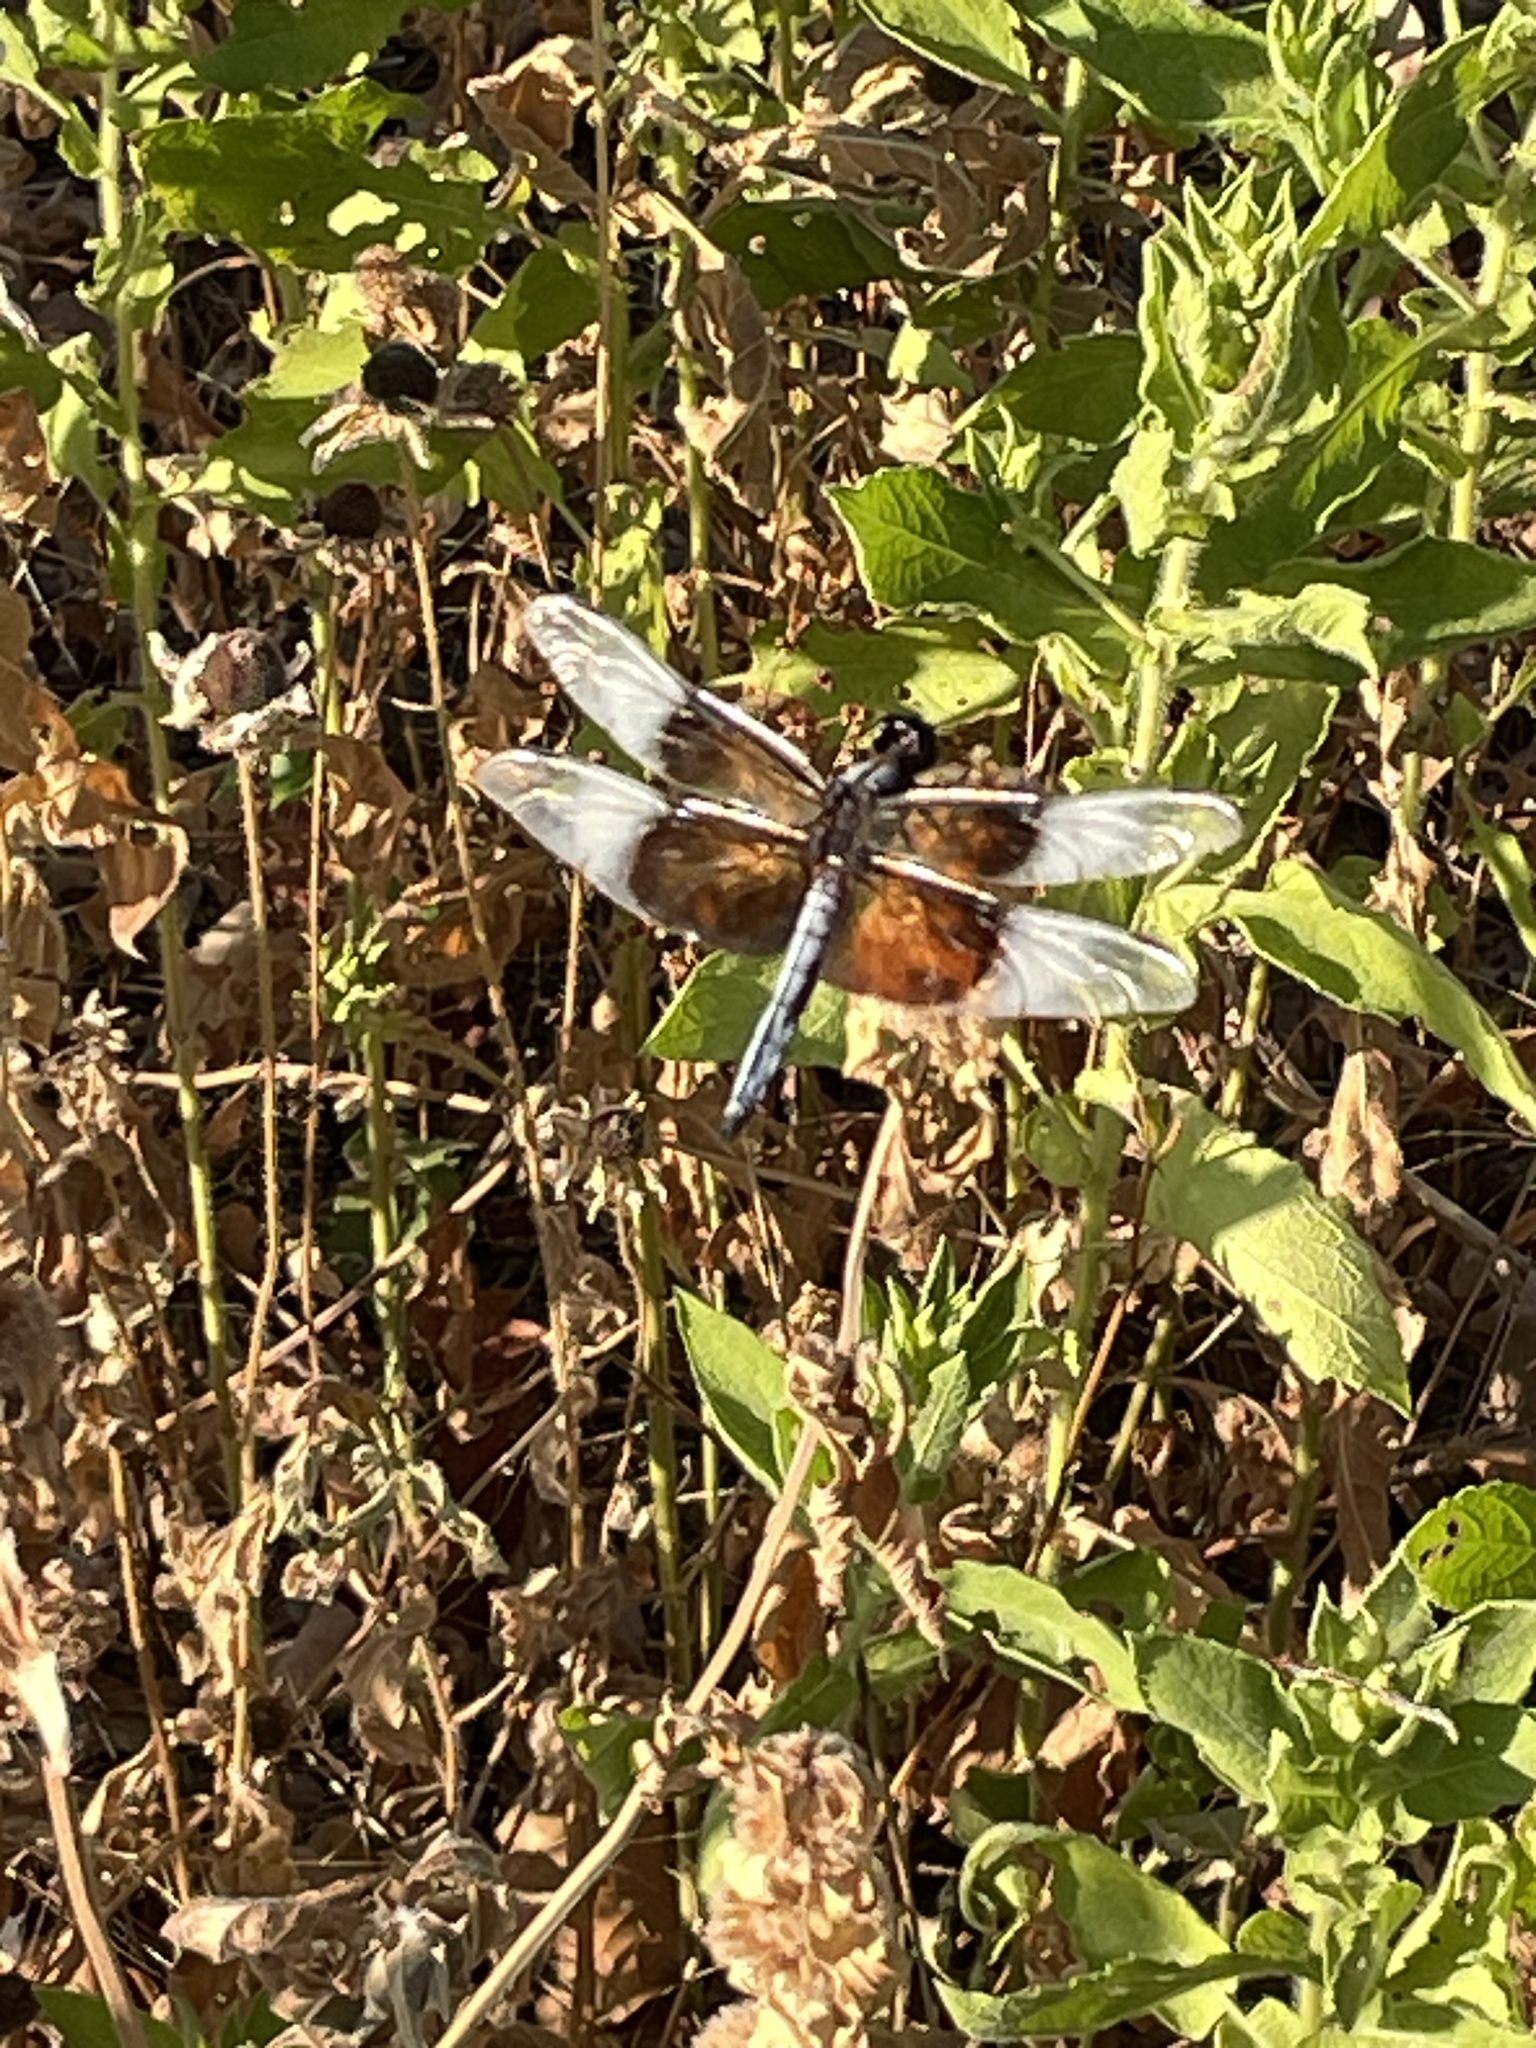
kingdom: Animalia
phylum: Arthropoda
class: Insecta
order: Odonata
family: Libellulidae
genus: Libellula
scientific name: Libellula luctuosa
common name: Widow skimmer
